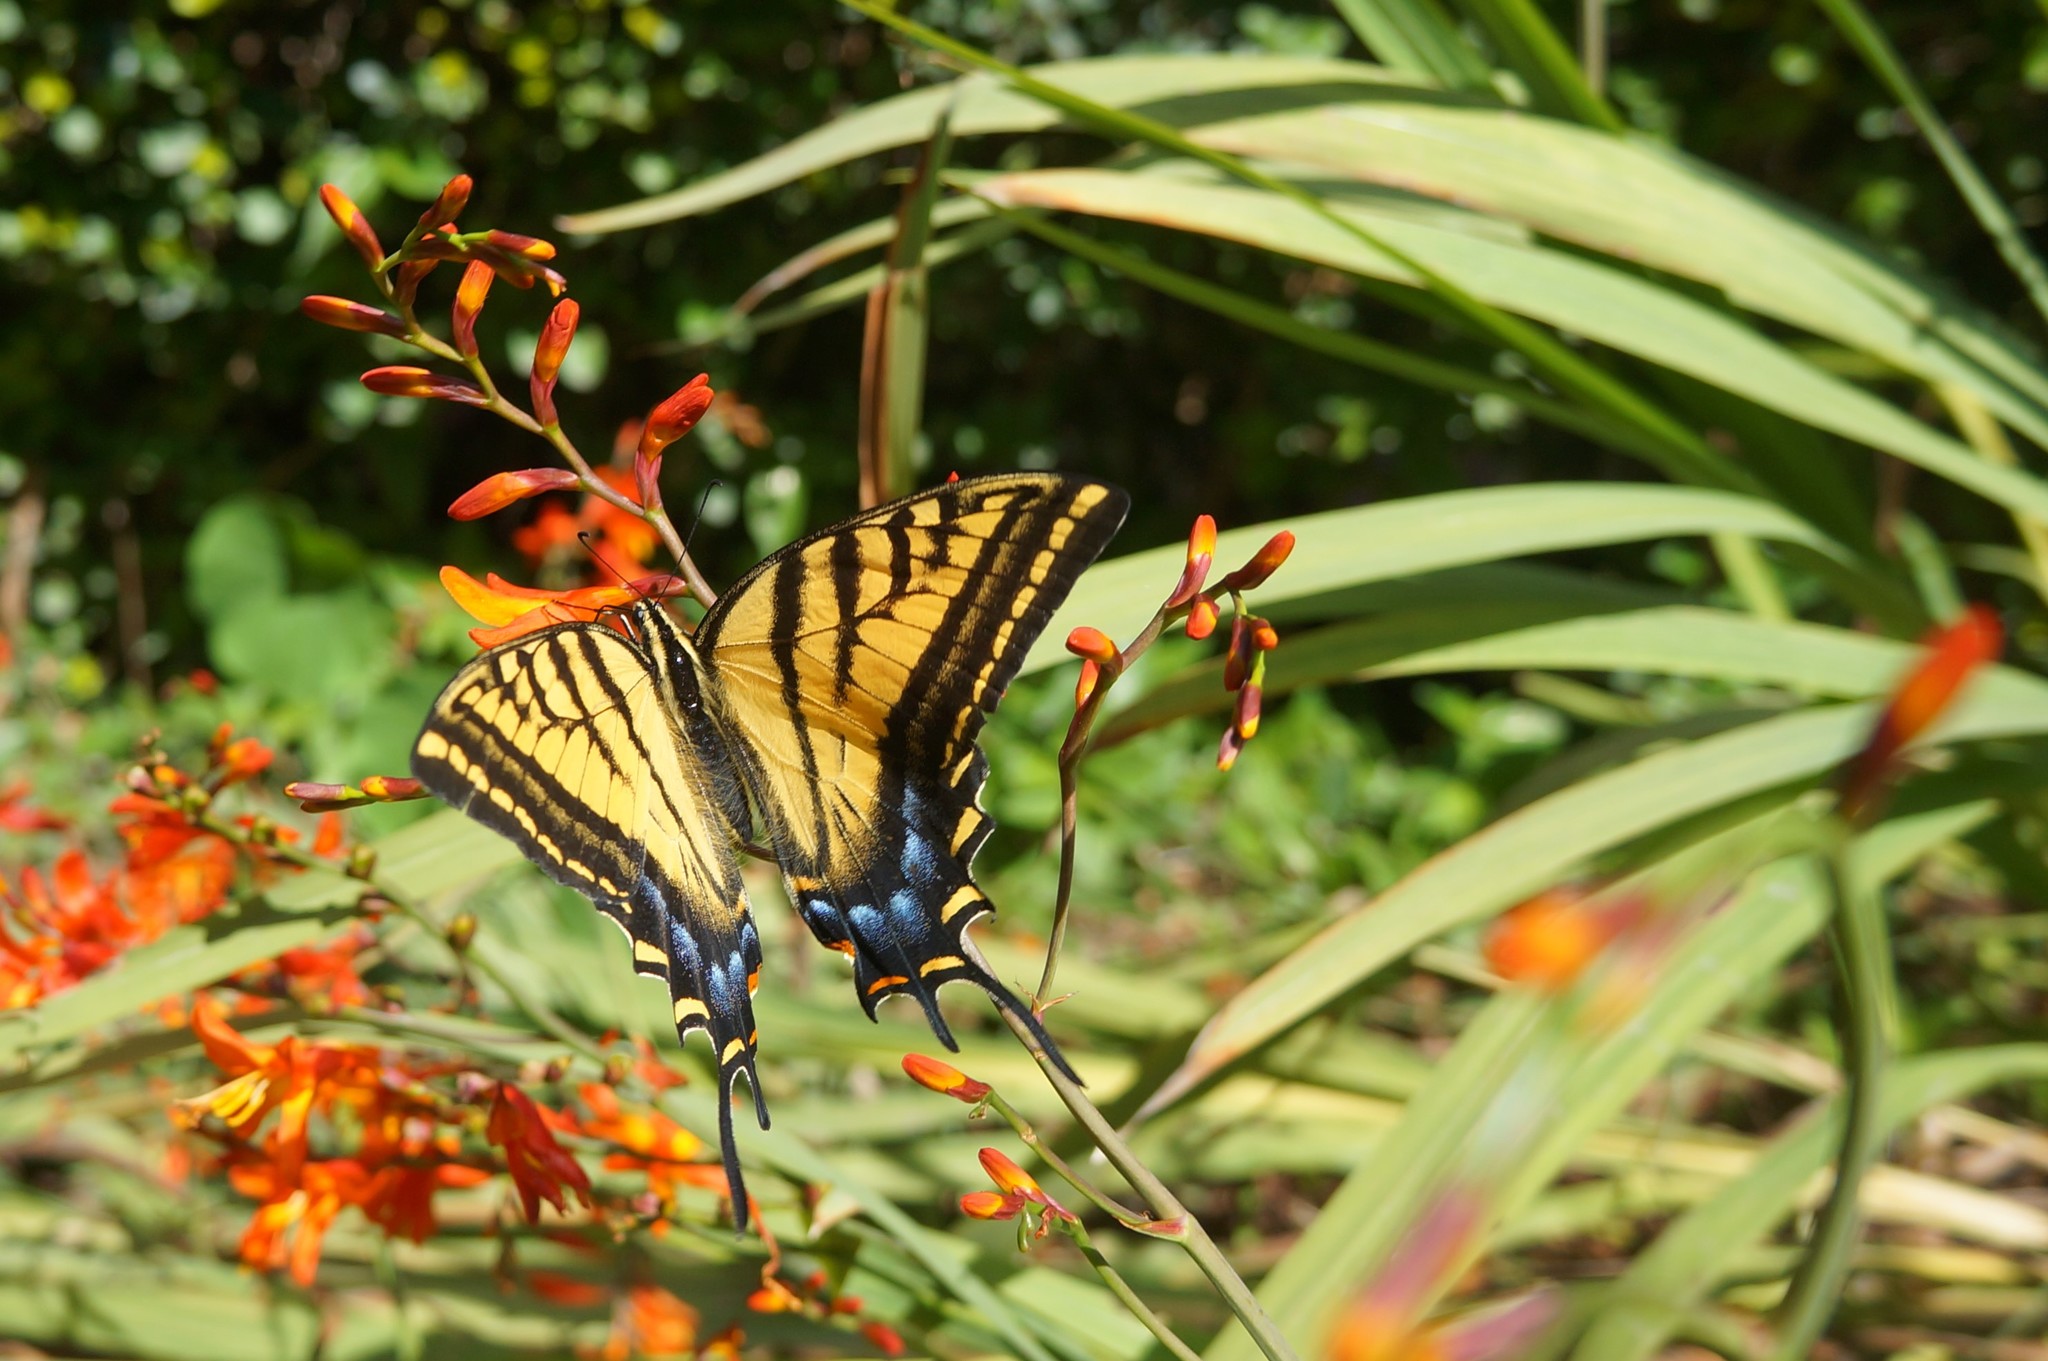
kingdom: Animalia
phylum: Arthropoda
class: Insecta
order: Lepidoptera
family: Papilionidae
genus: Papilio
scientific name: Papilio multicaudata
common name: Two-tailed tiger swallowtail
